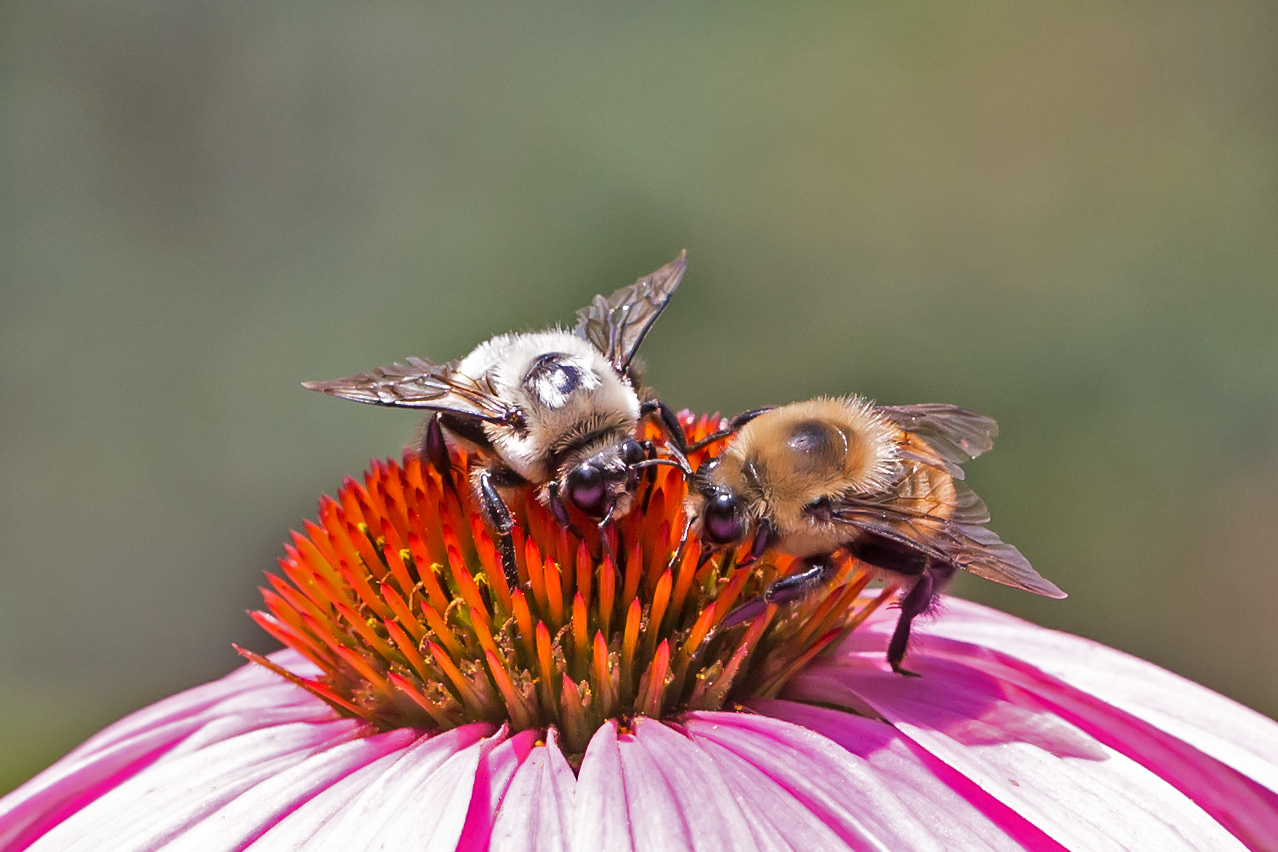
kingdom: Animalia
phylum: Arthropoda
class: Insecta
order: Hymenoptera
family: Apidae
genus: Bombus
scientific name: Bombus griseocollis
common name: Brown-belted bumble bee
